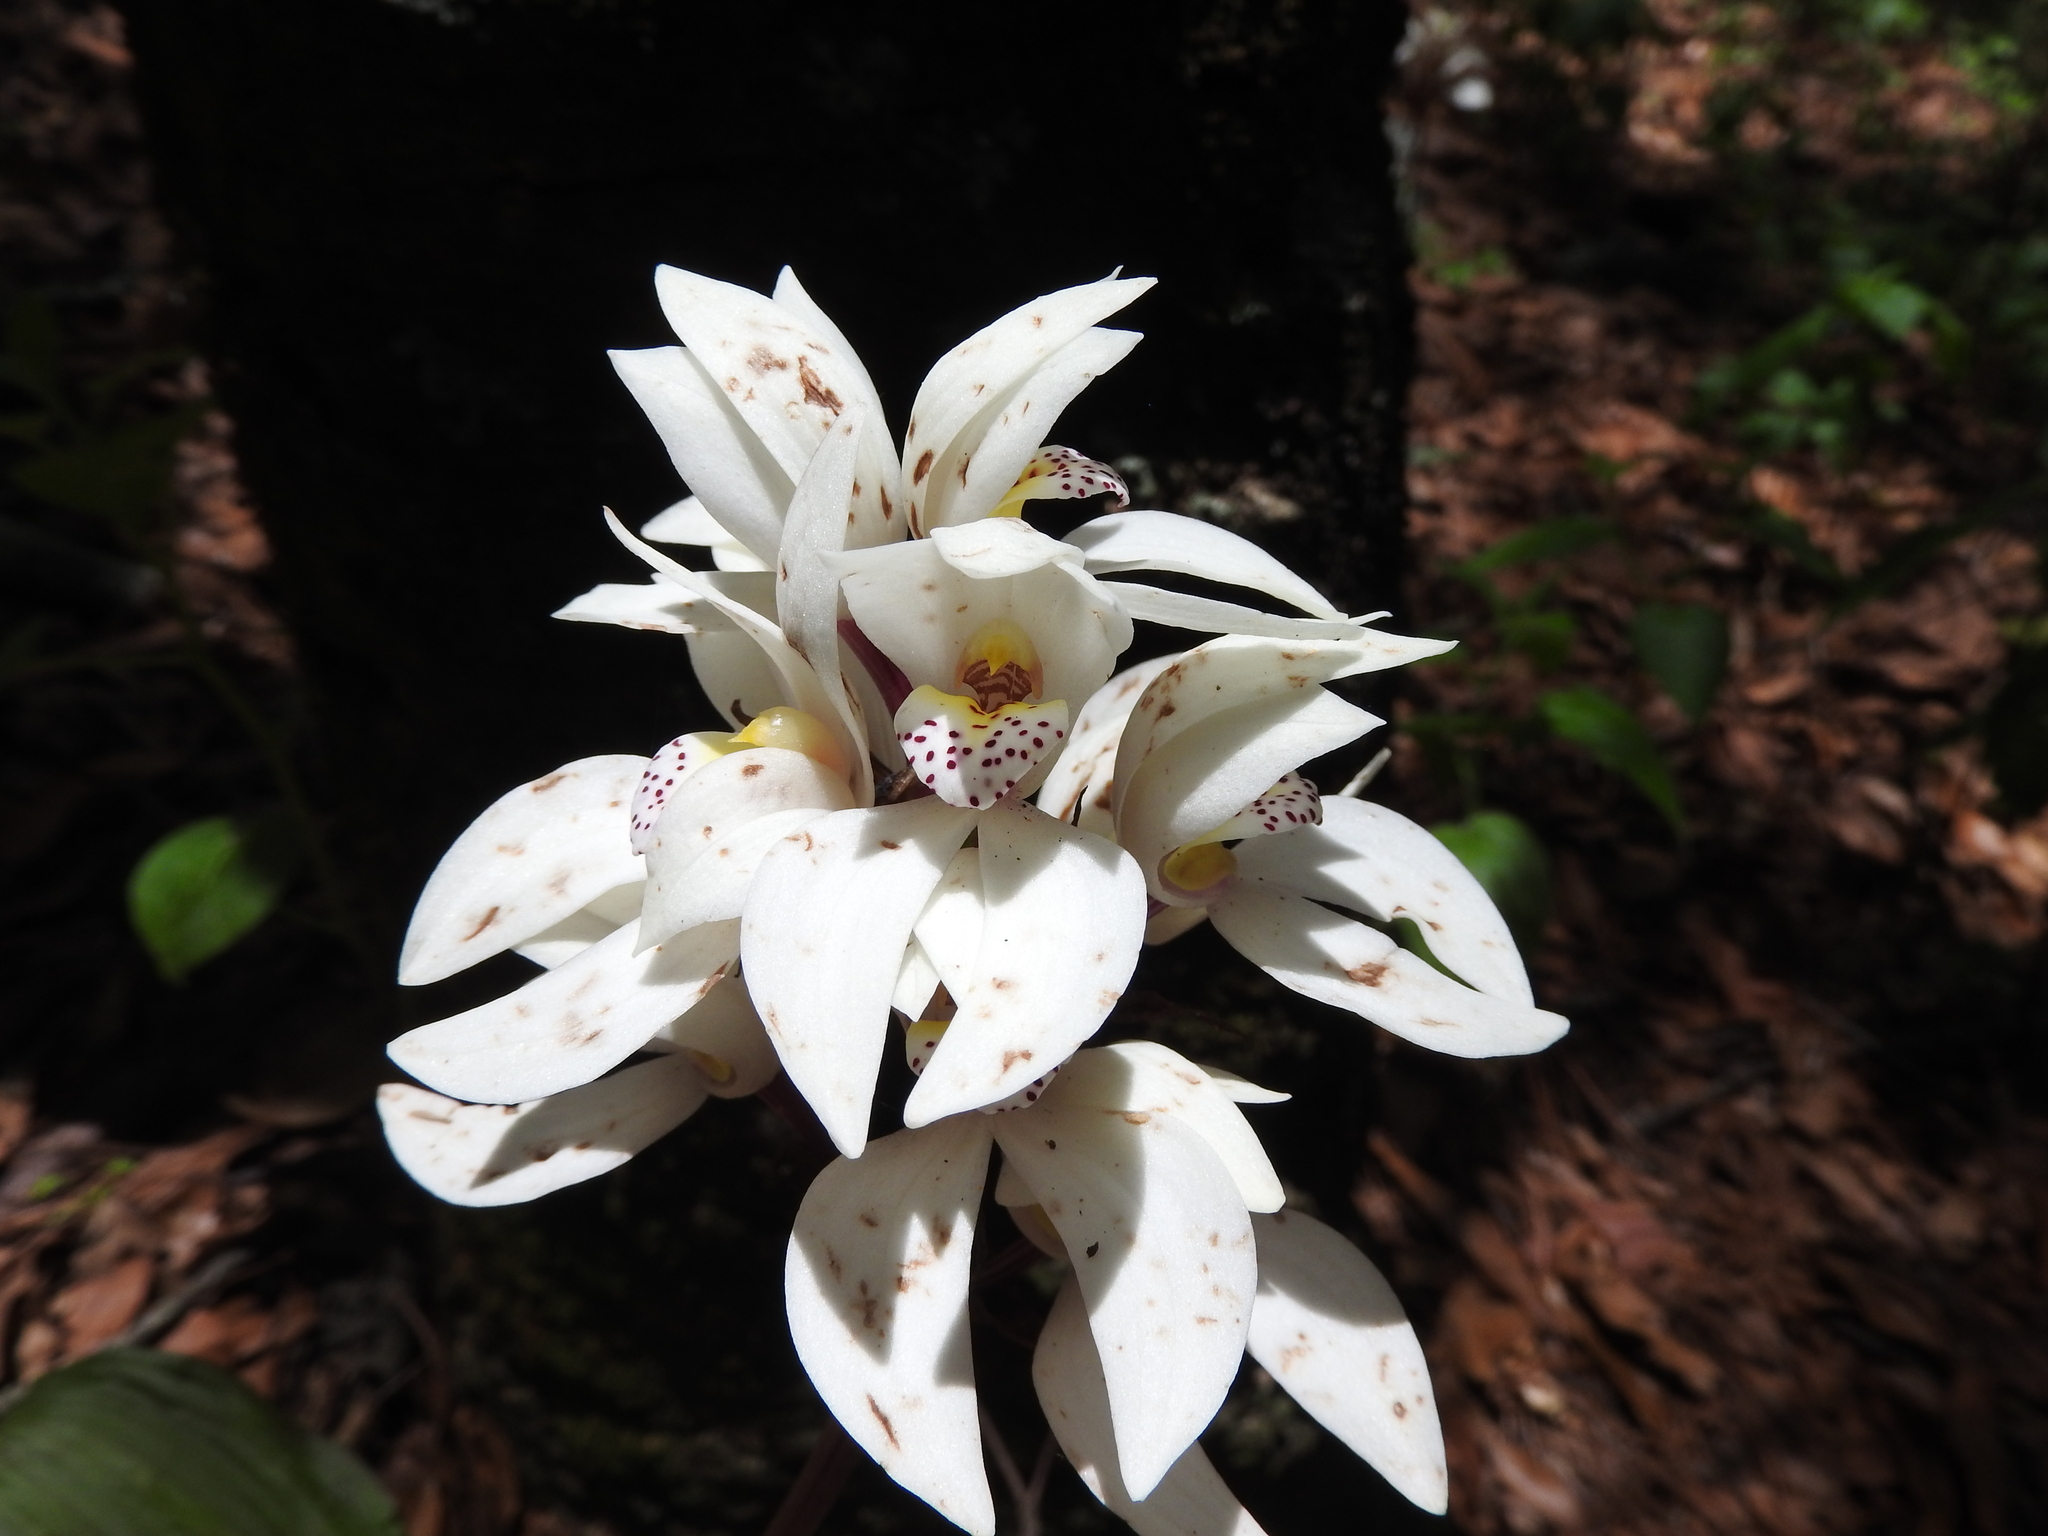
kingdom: Plantae
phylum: Tracheophyta
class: Liliopsida
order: Asparagales
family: Orchidaceae
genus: Govenia
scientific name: Govenia capitata
